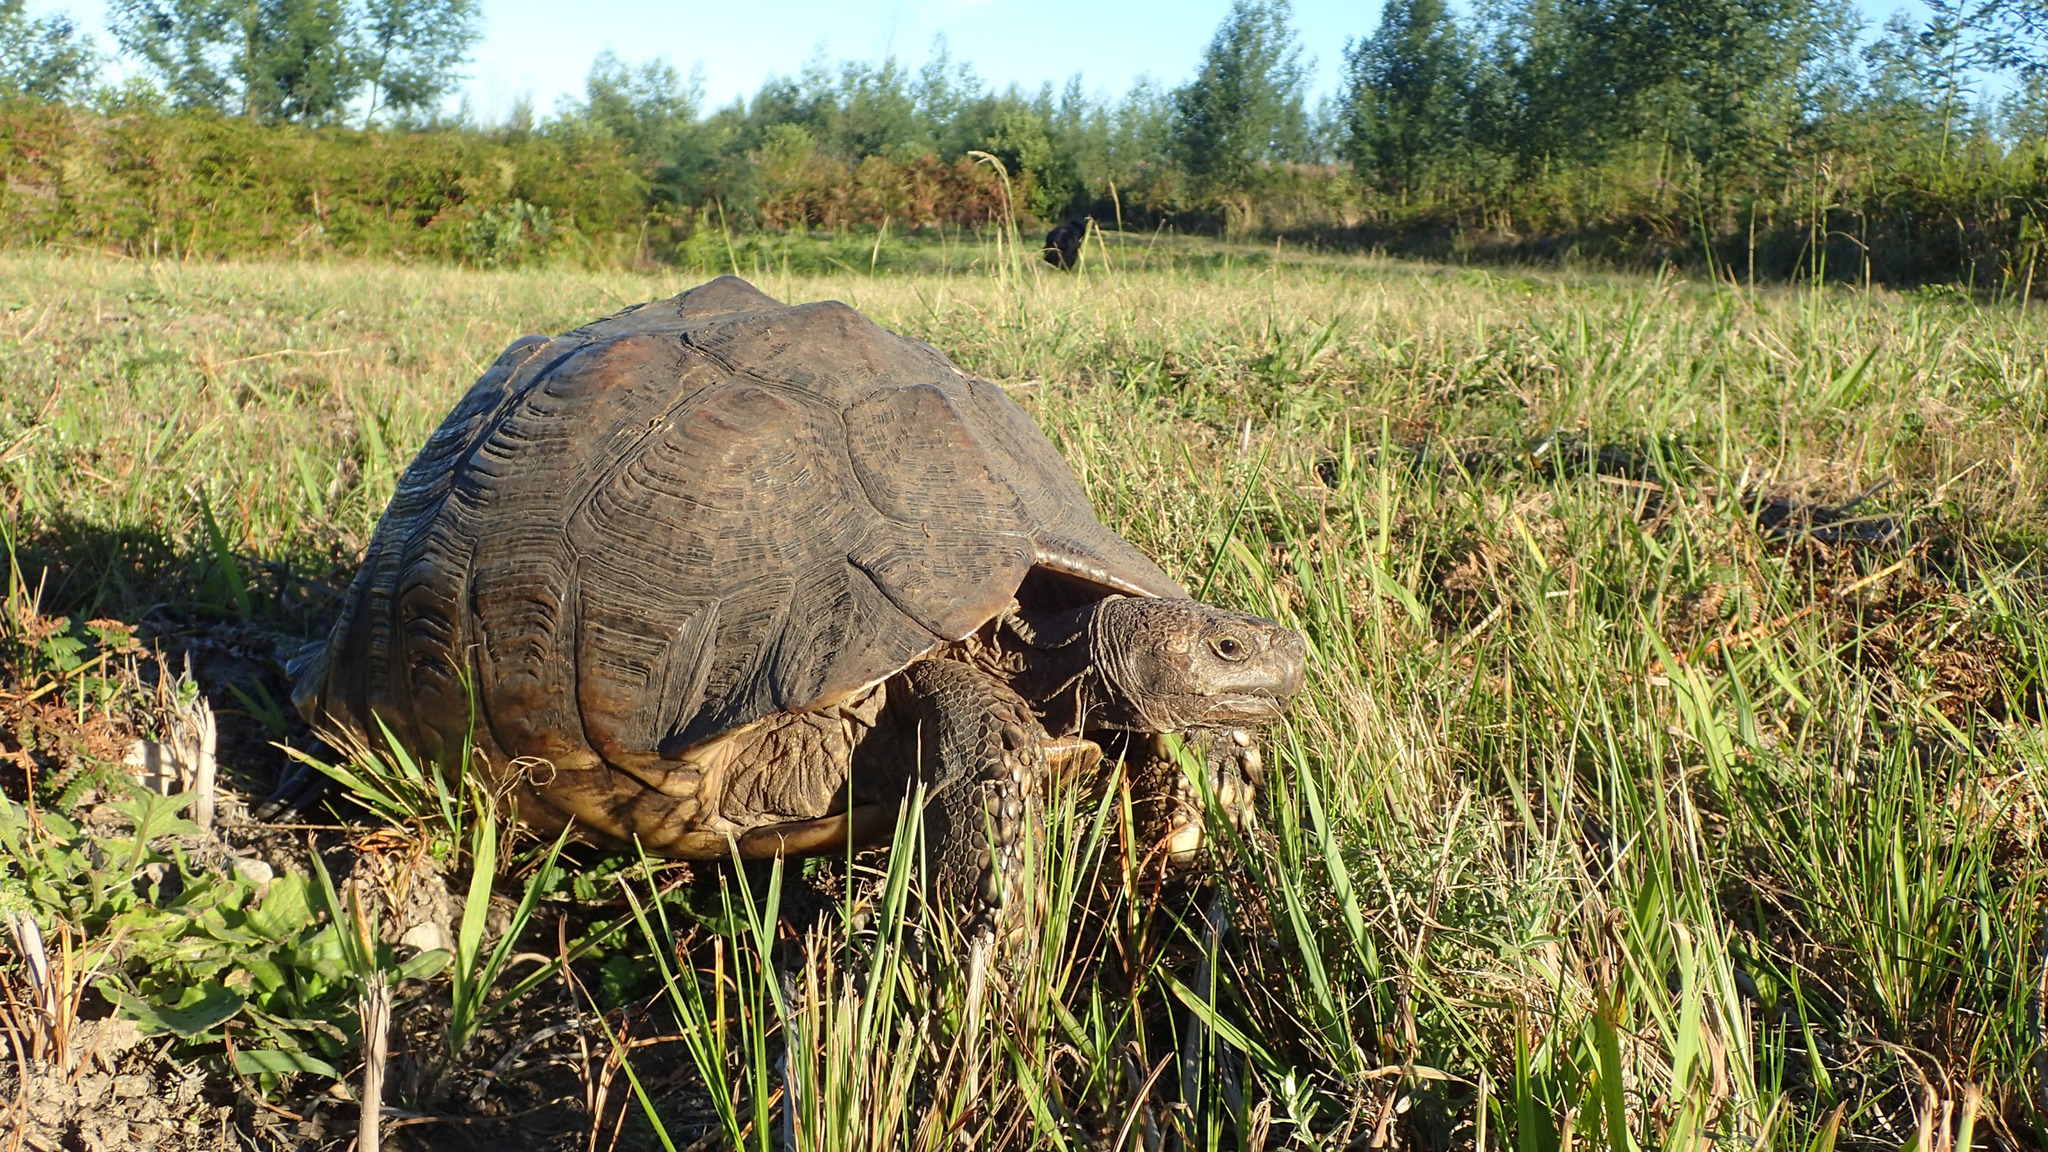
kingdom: Animalia
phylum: Chordata
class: Testudines
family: Testudinidae
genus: Stigmochelys
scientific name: Stigmochelys pardalis
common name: Leopard tortoise
